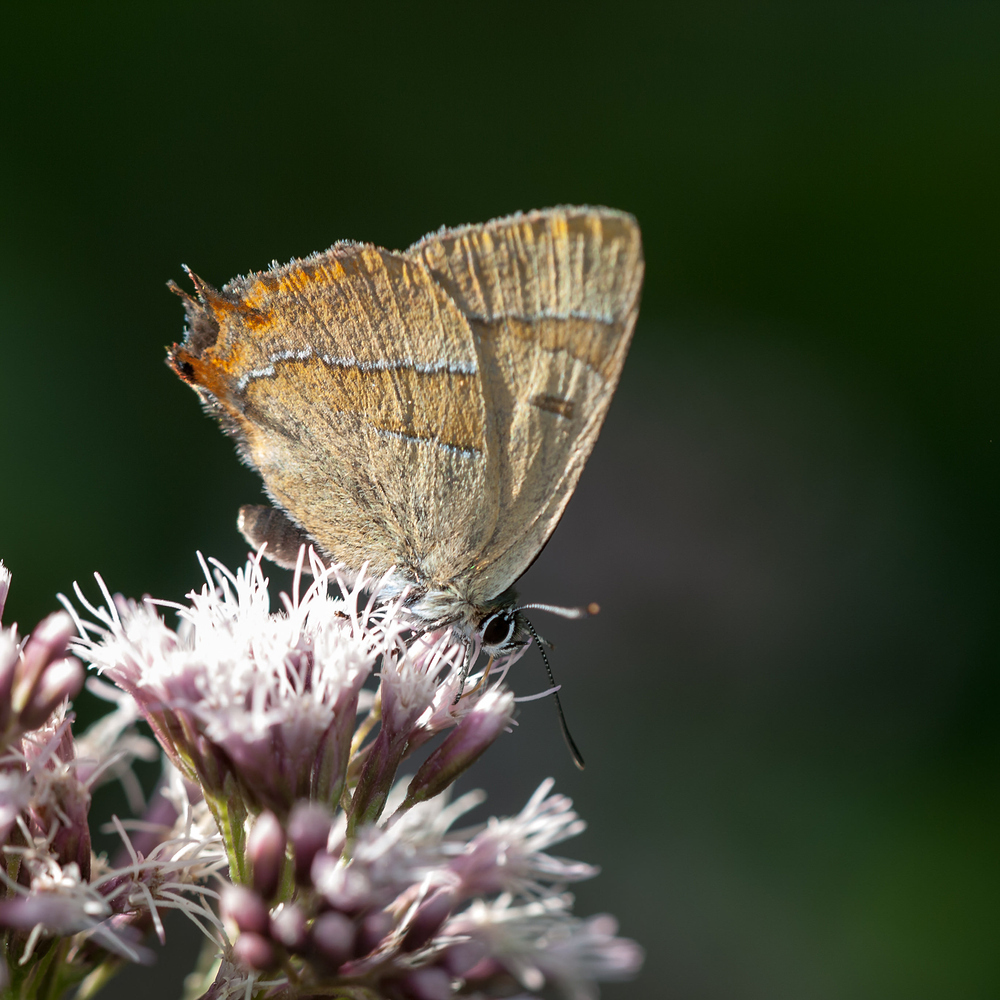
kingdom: Animalia
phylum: Arthropoda
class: Insecta
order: Lepidoptera
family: Lycaenidae
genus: Thecla
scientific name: Thecla betulae
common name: Brown hairstreak
